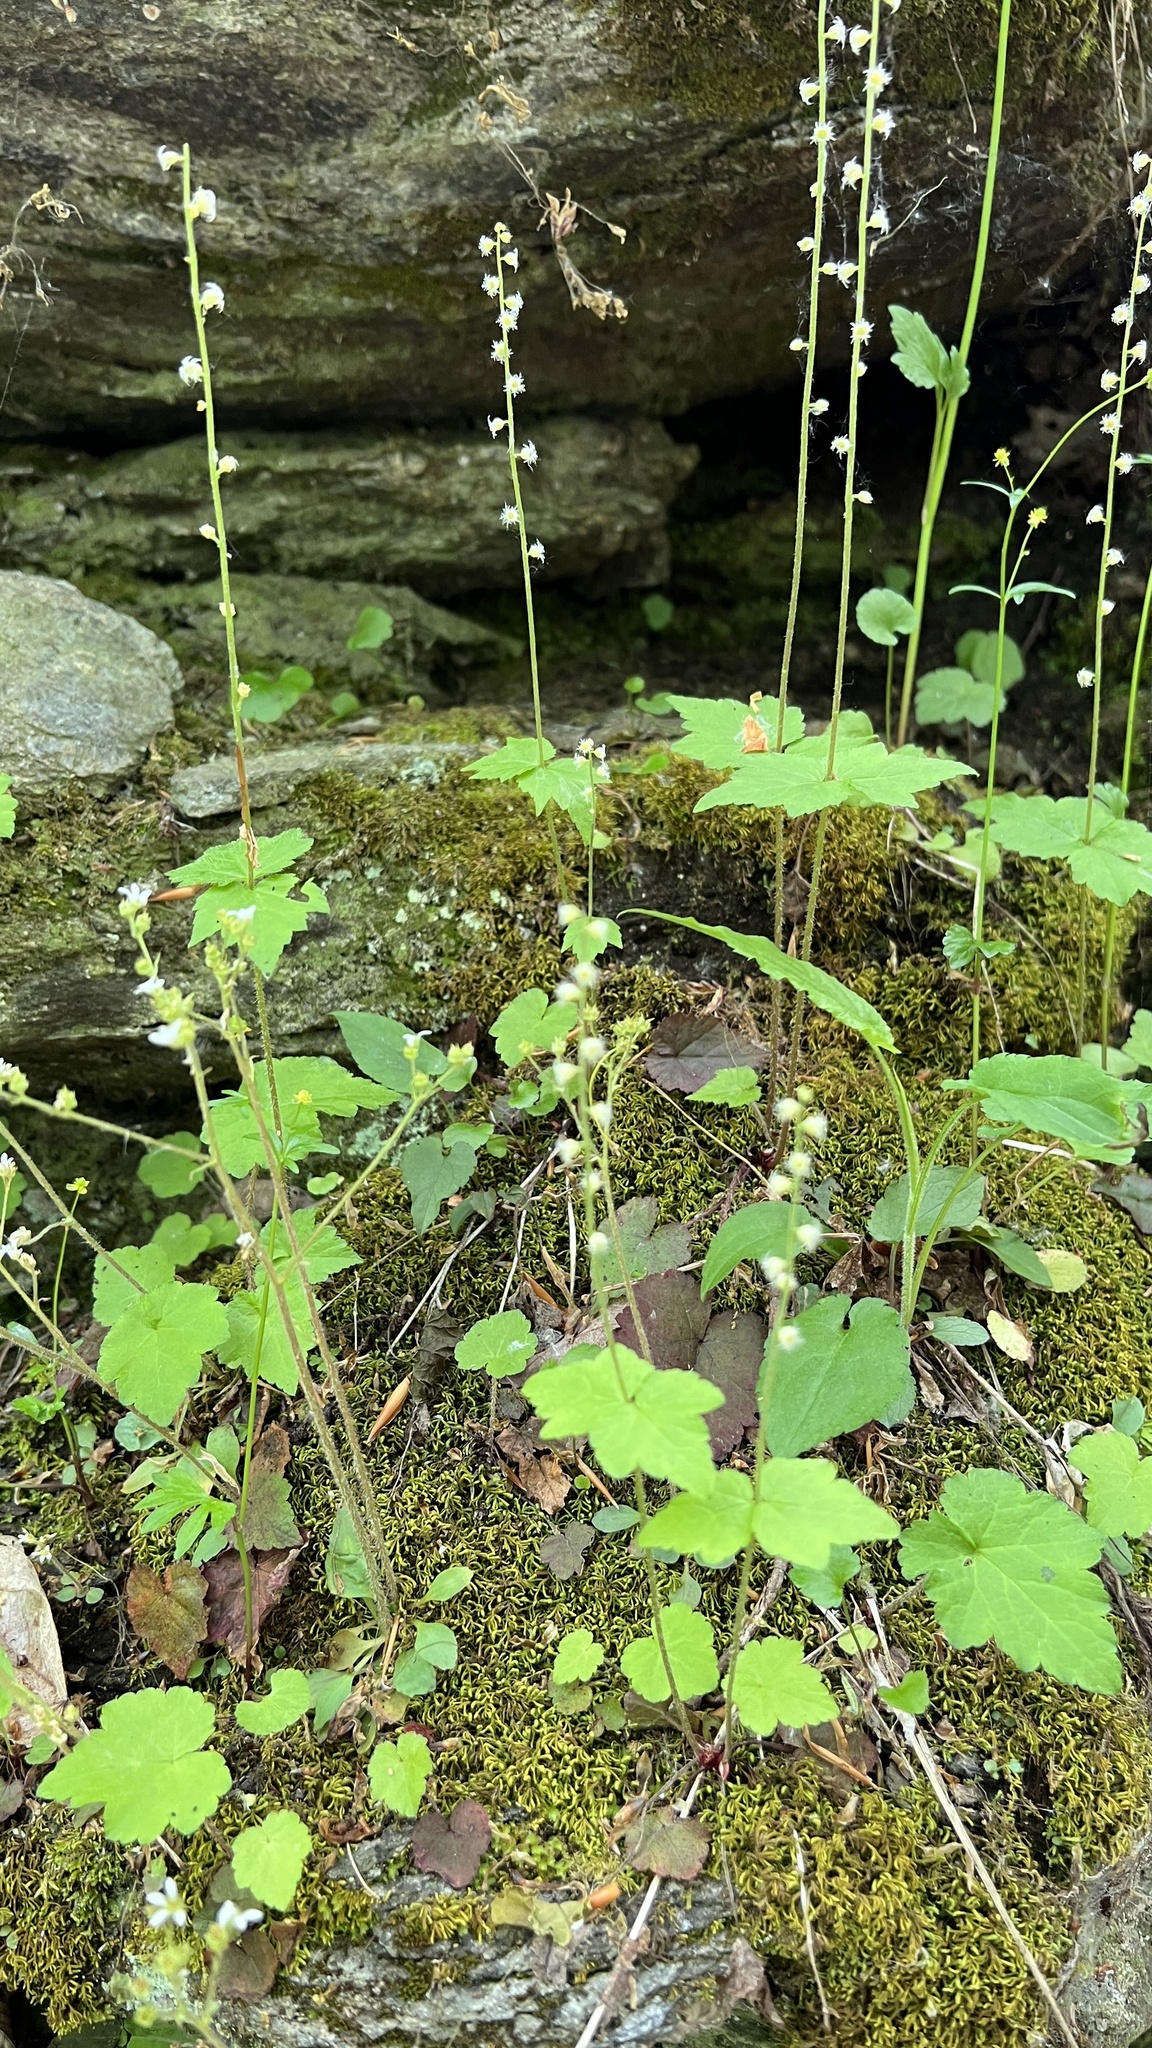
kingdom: Plantae
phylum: Tracheophyta
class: Magnoliopsida
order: Saxifragales
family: Saxifragaceae
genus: Mitella
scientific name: Mitella diphylla
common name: Coolwort
